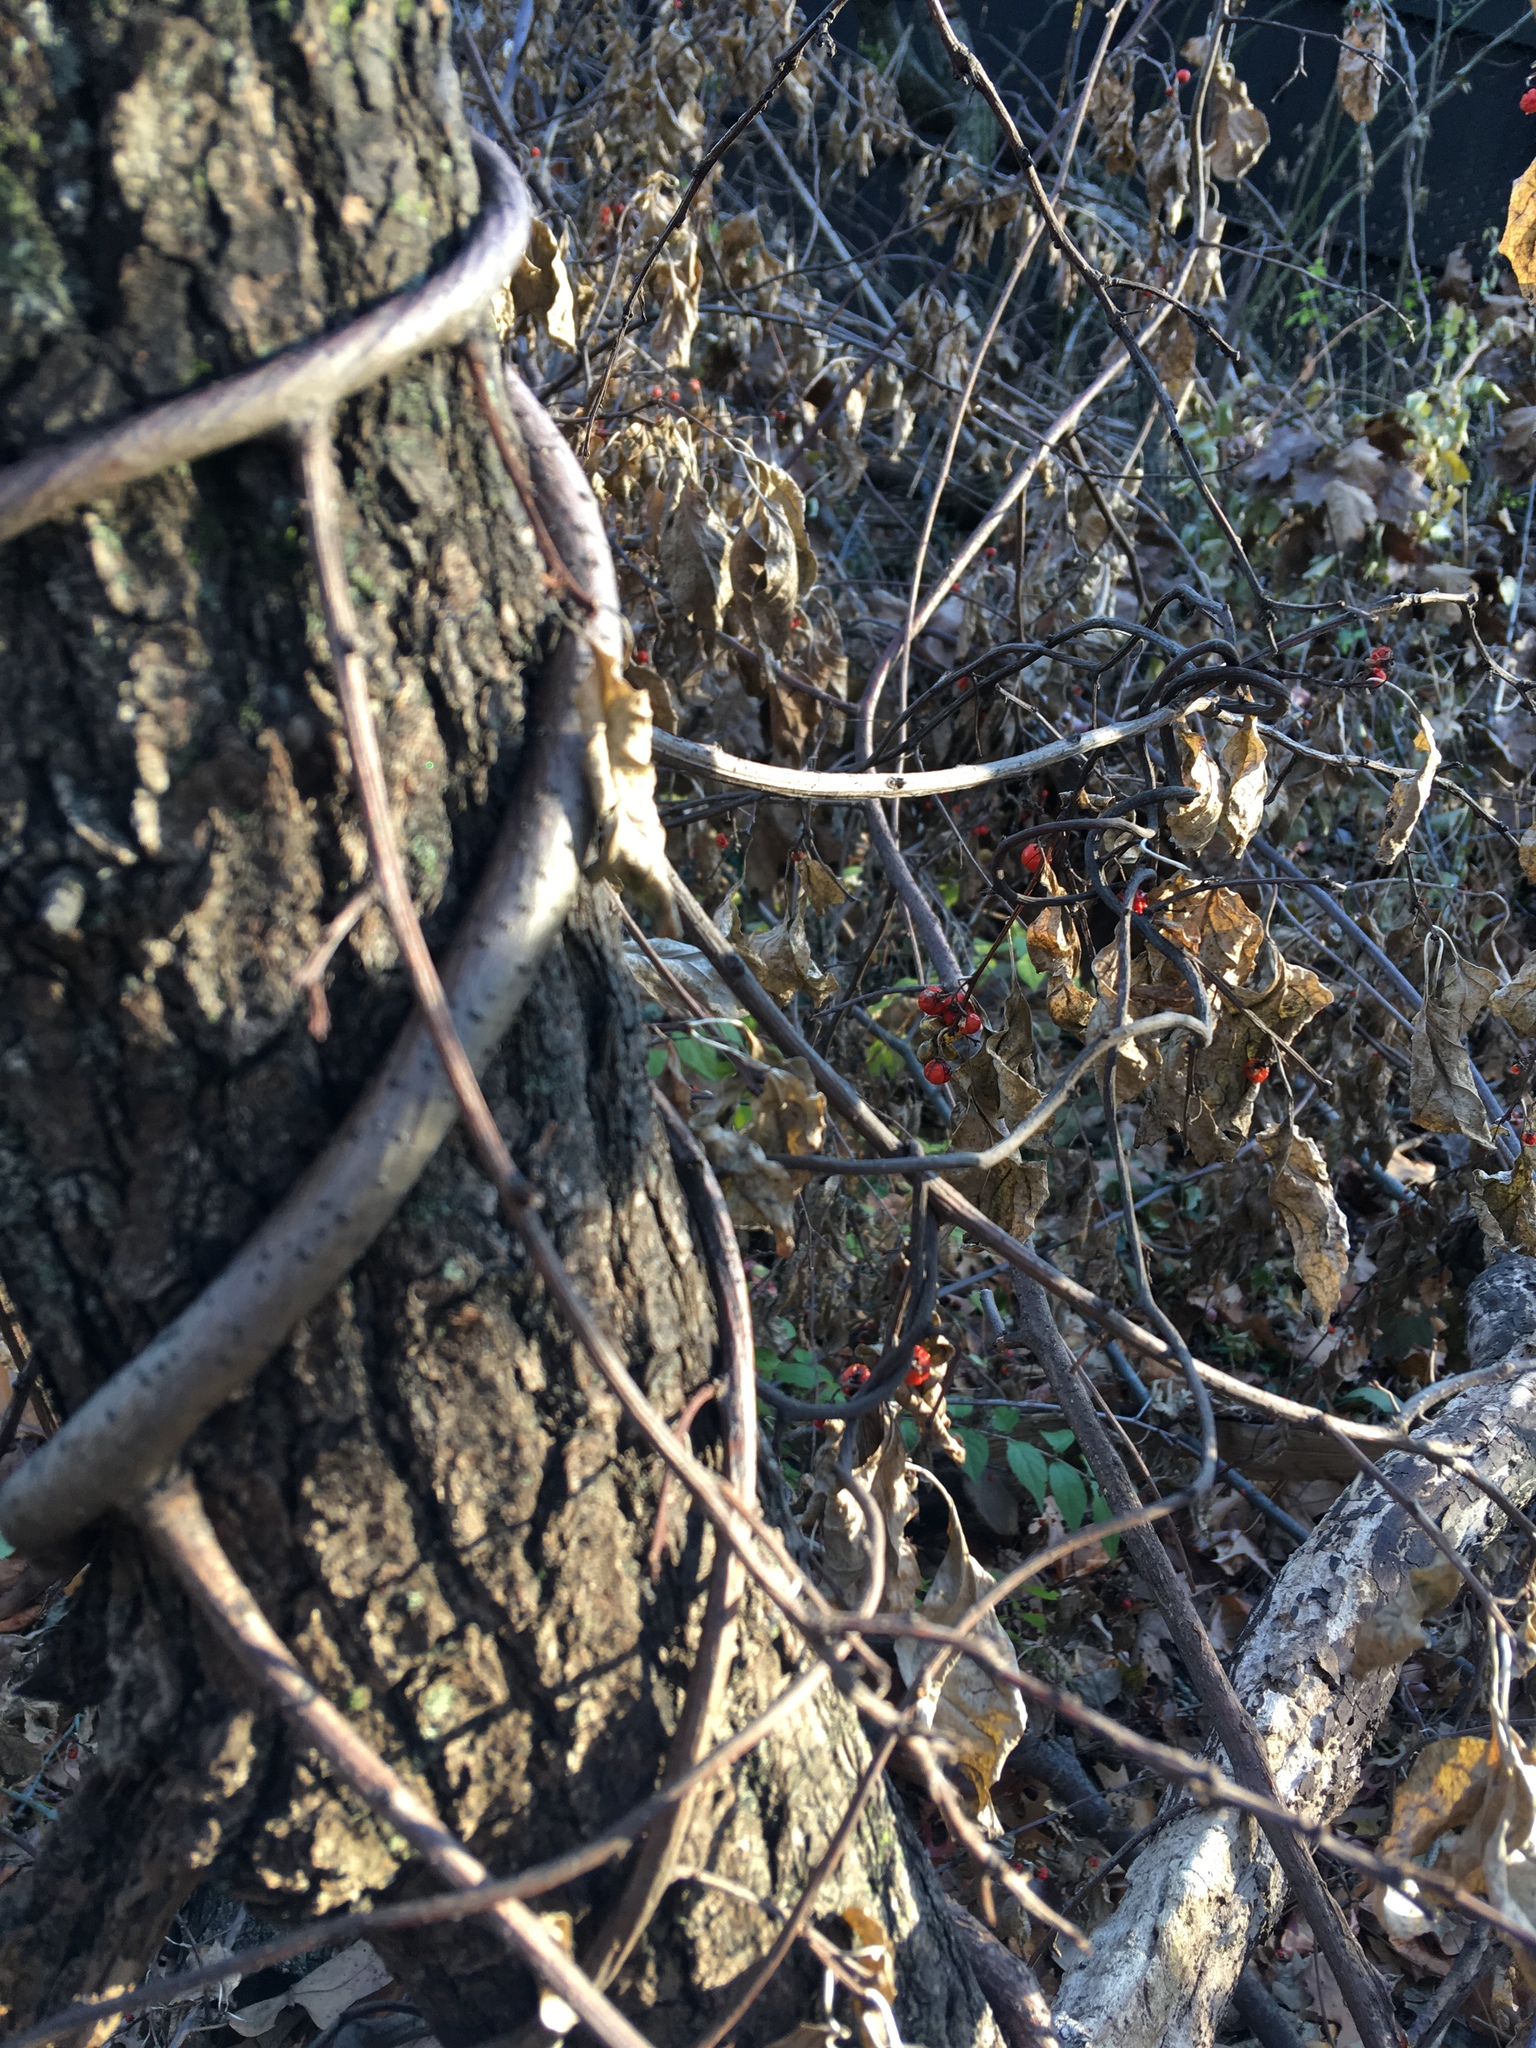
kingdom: Plantae
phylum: Tracheophyta
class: Magnoliopsida
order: Celastrales
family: Celastraceae
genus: Celastrus
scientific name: Celastrus orbiculatus
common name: Oriental bittersweet
